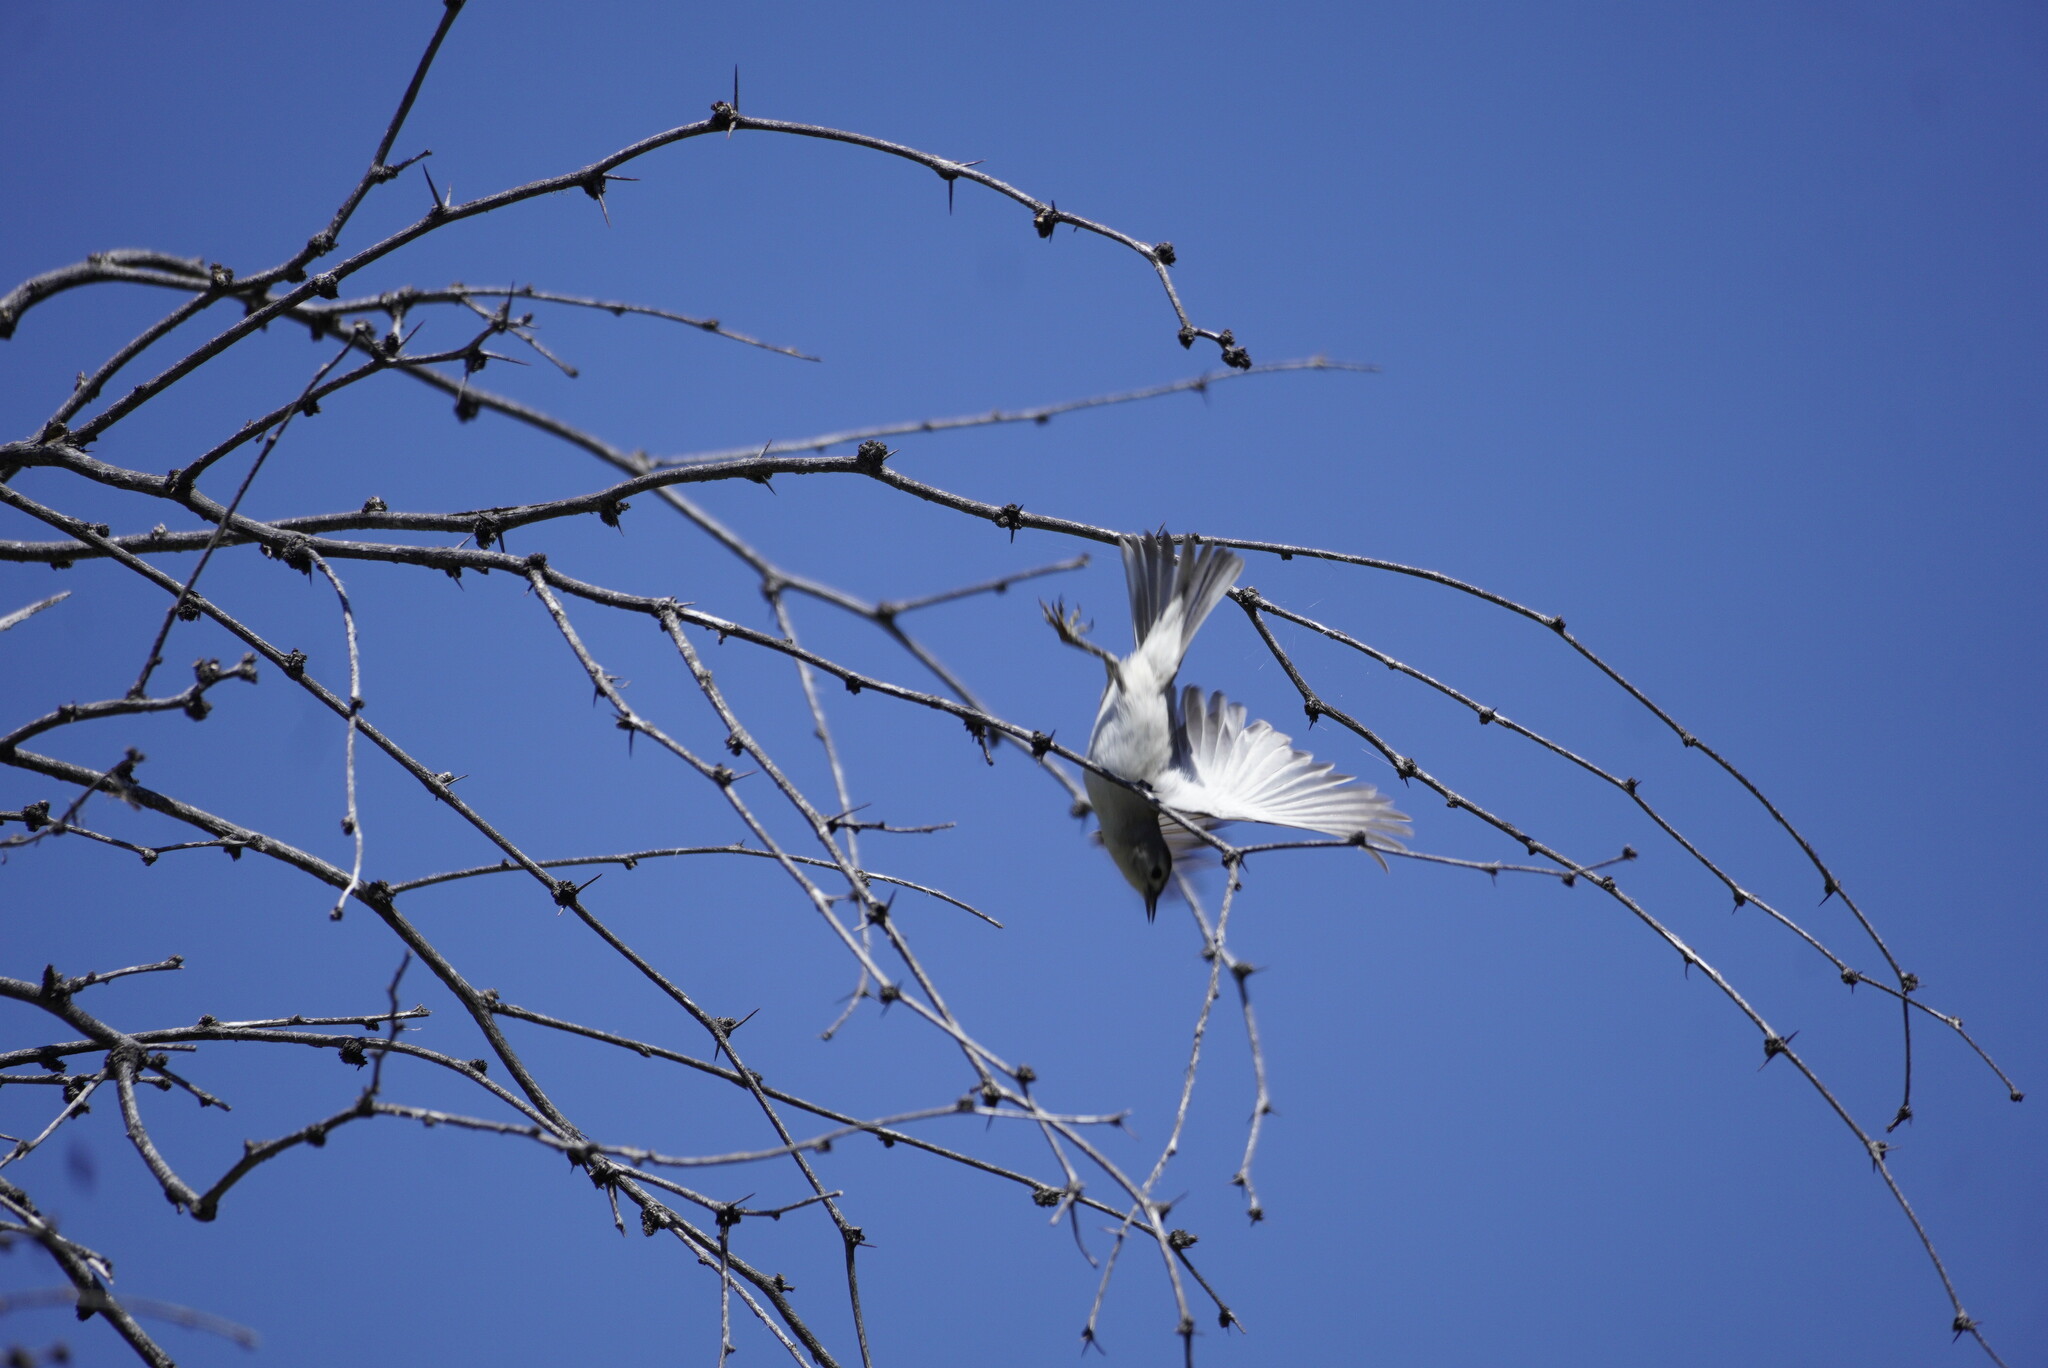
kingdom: Animalia
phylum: Chordata
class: Aves
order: Passeriformes
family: Parulidae
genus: Leiothlypis
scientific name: Leiothlypis luciae
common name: Lucy's warbler
